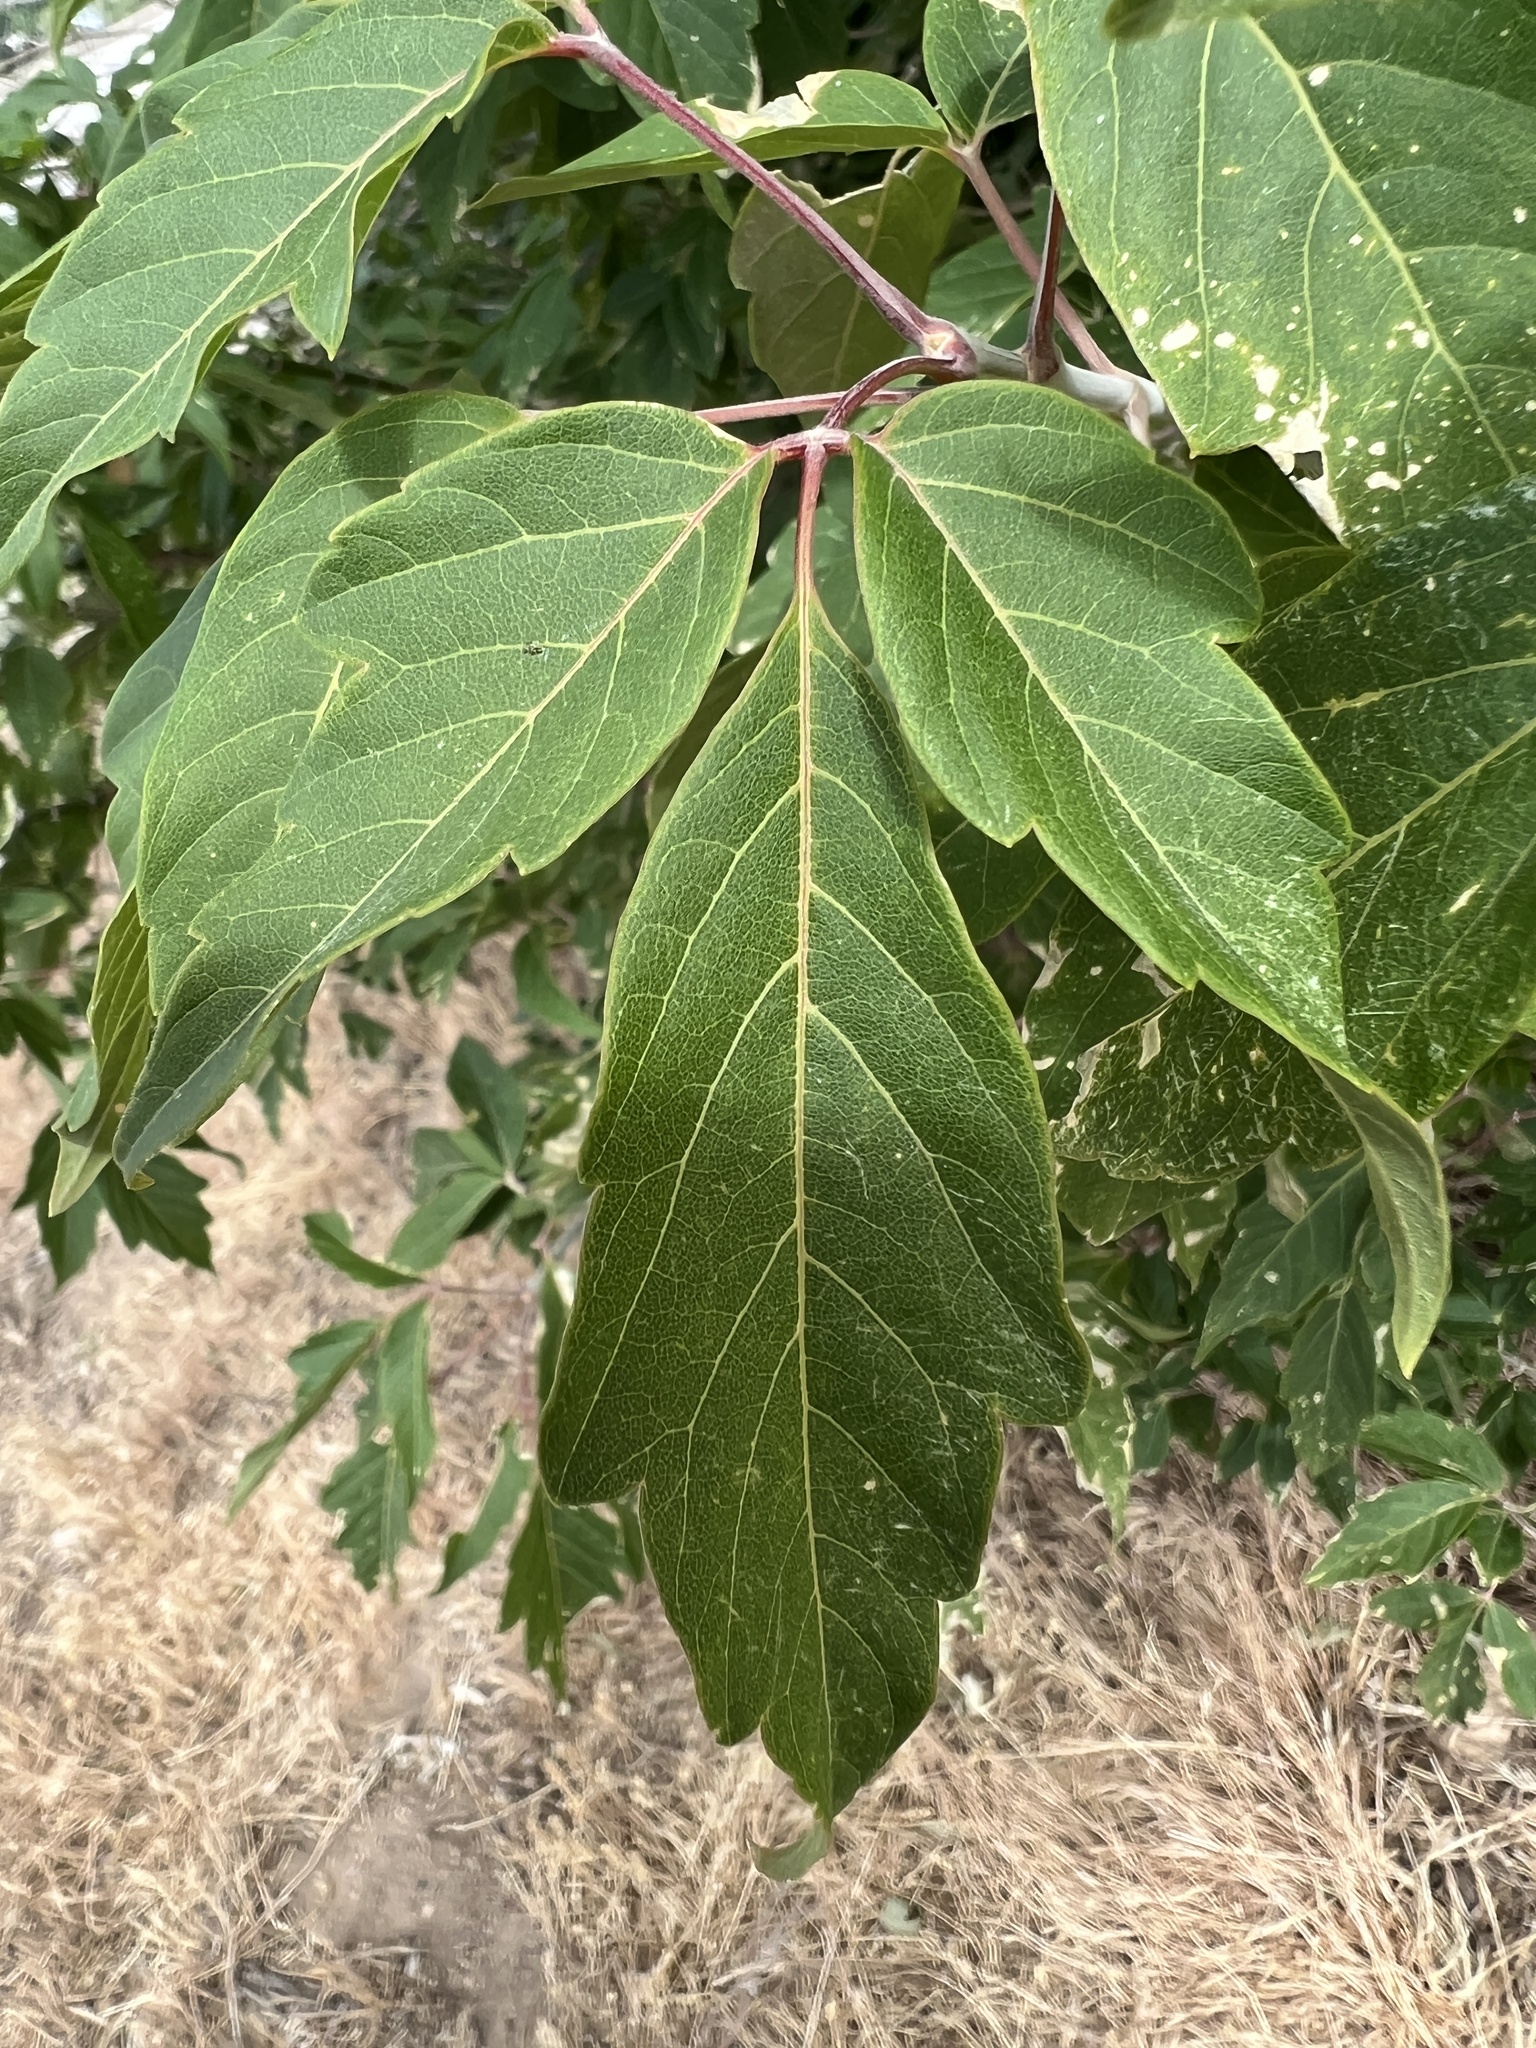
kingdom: Plantae
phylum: Tracheophyta
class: Magnoliopsida
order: Sapindales
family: Sapindaceae
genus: Acer
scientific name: Acer negundo
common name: Ashleaf maple
